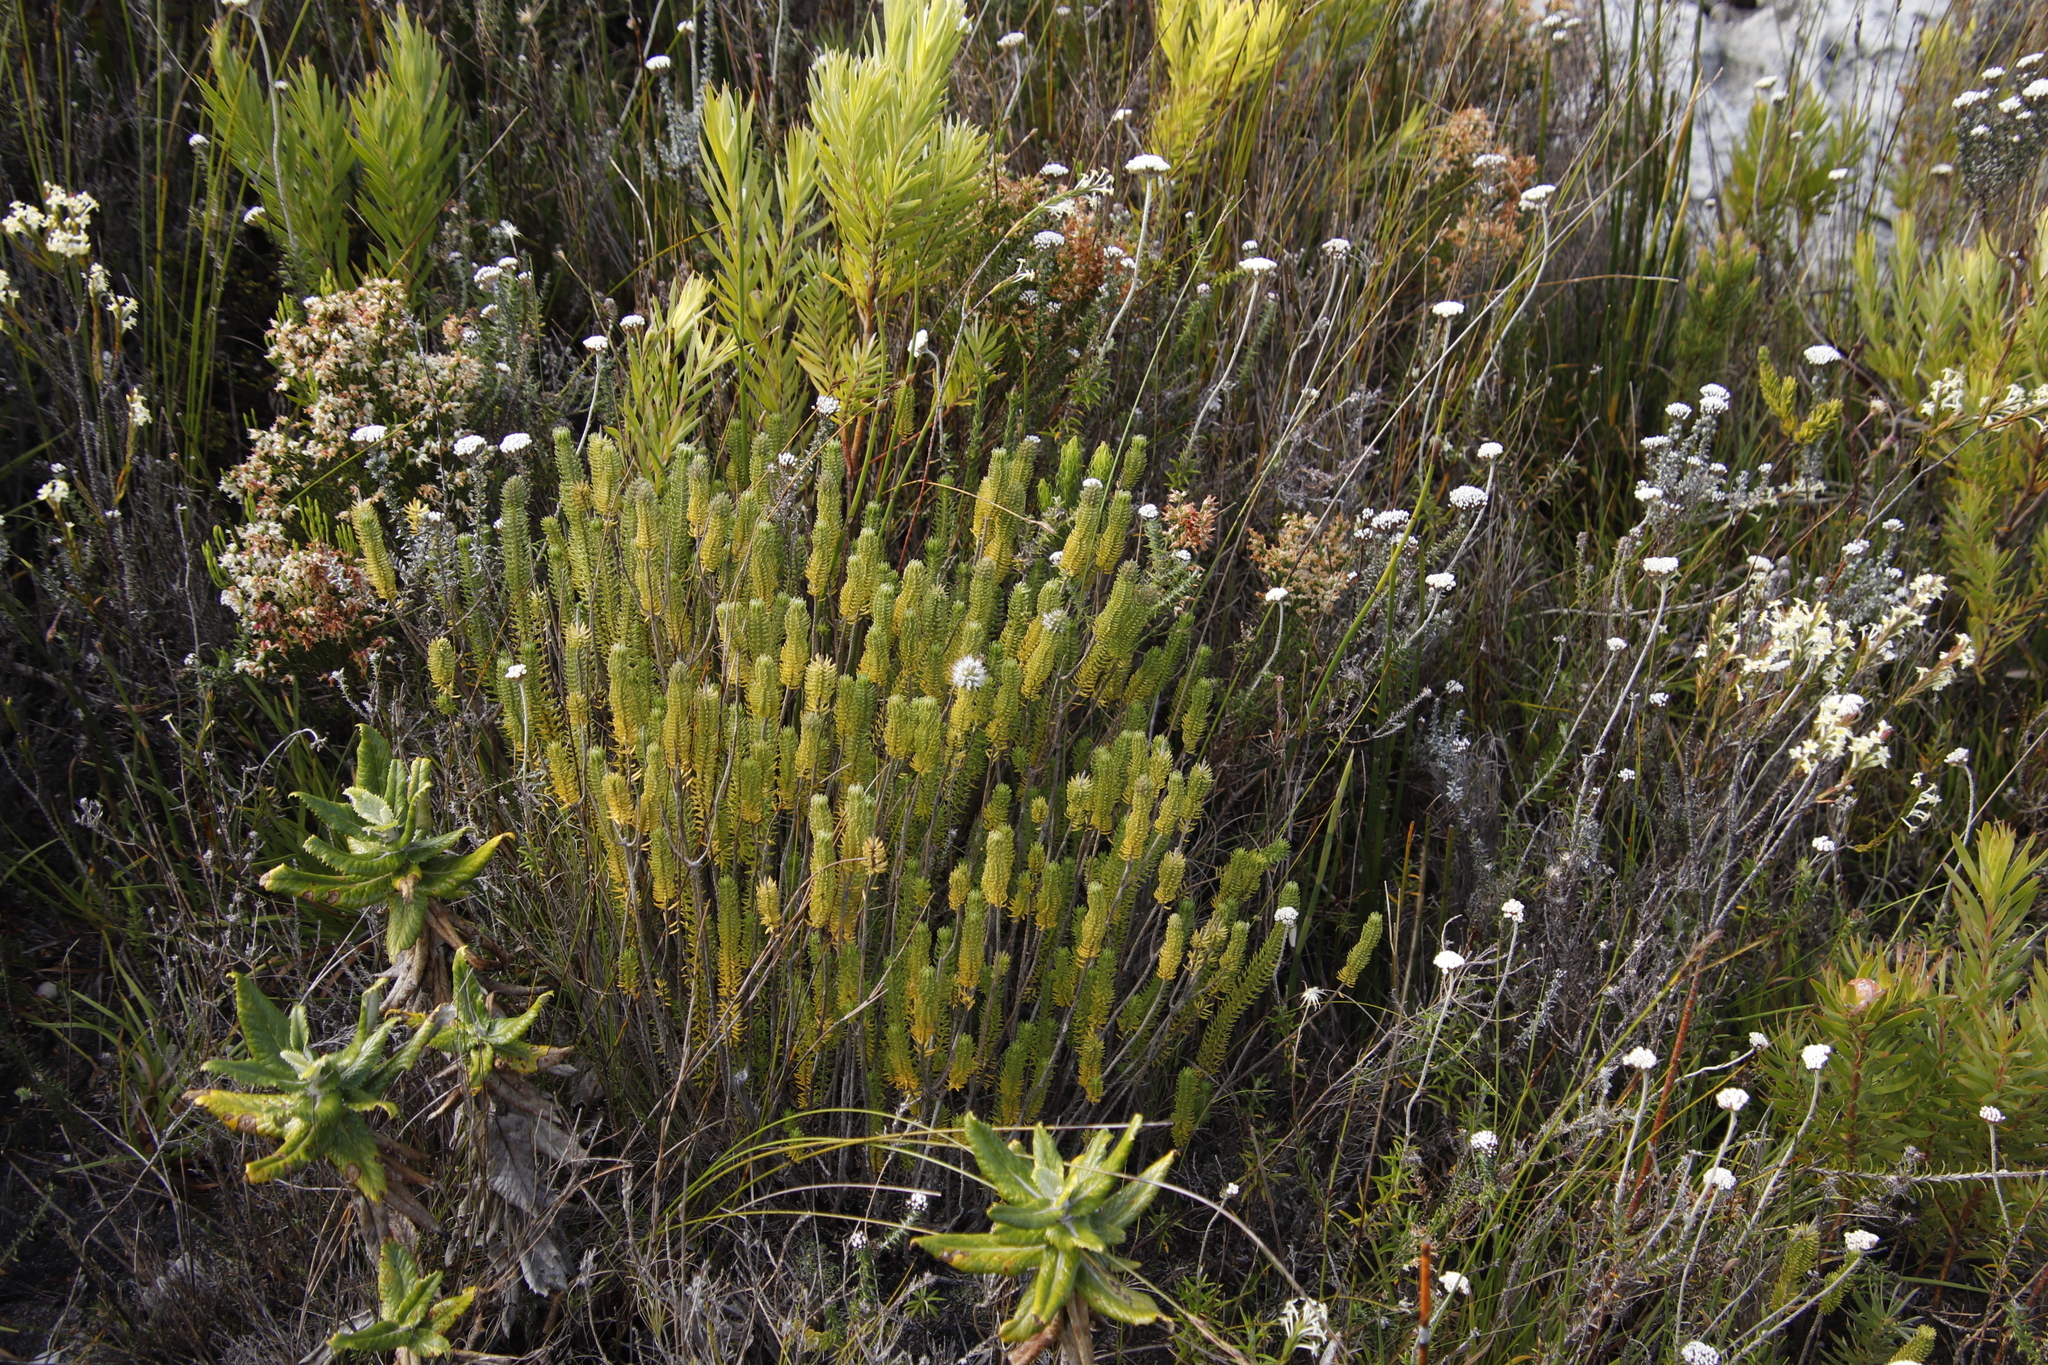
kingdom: Plantae
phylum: Tracheophyta
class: Magnoliopsida
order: Lamiales
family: Stilbaceae
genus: Stilbe
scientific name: Stilbe vestita
